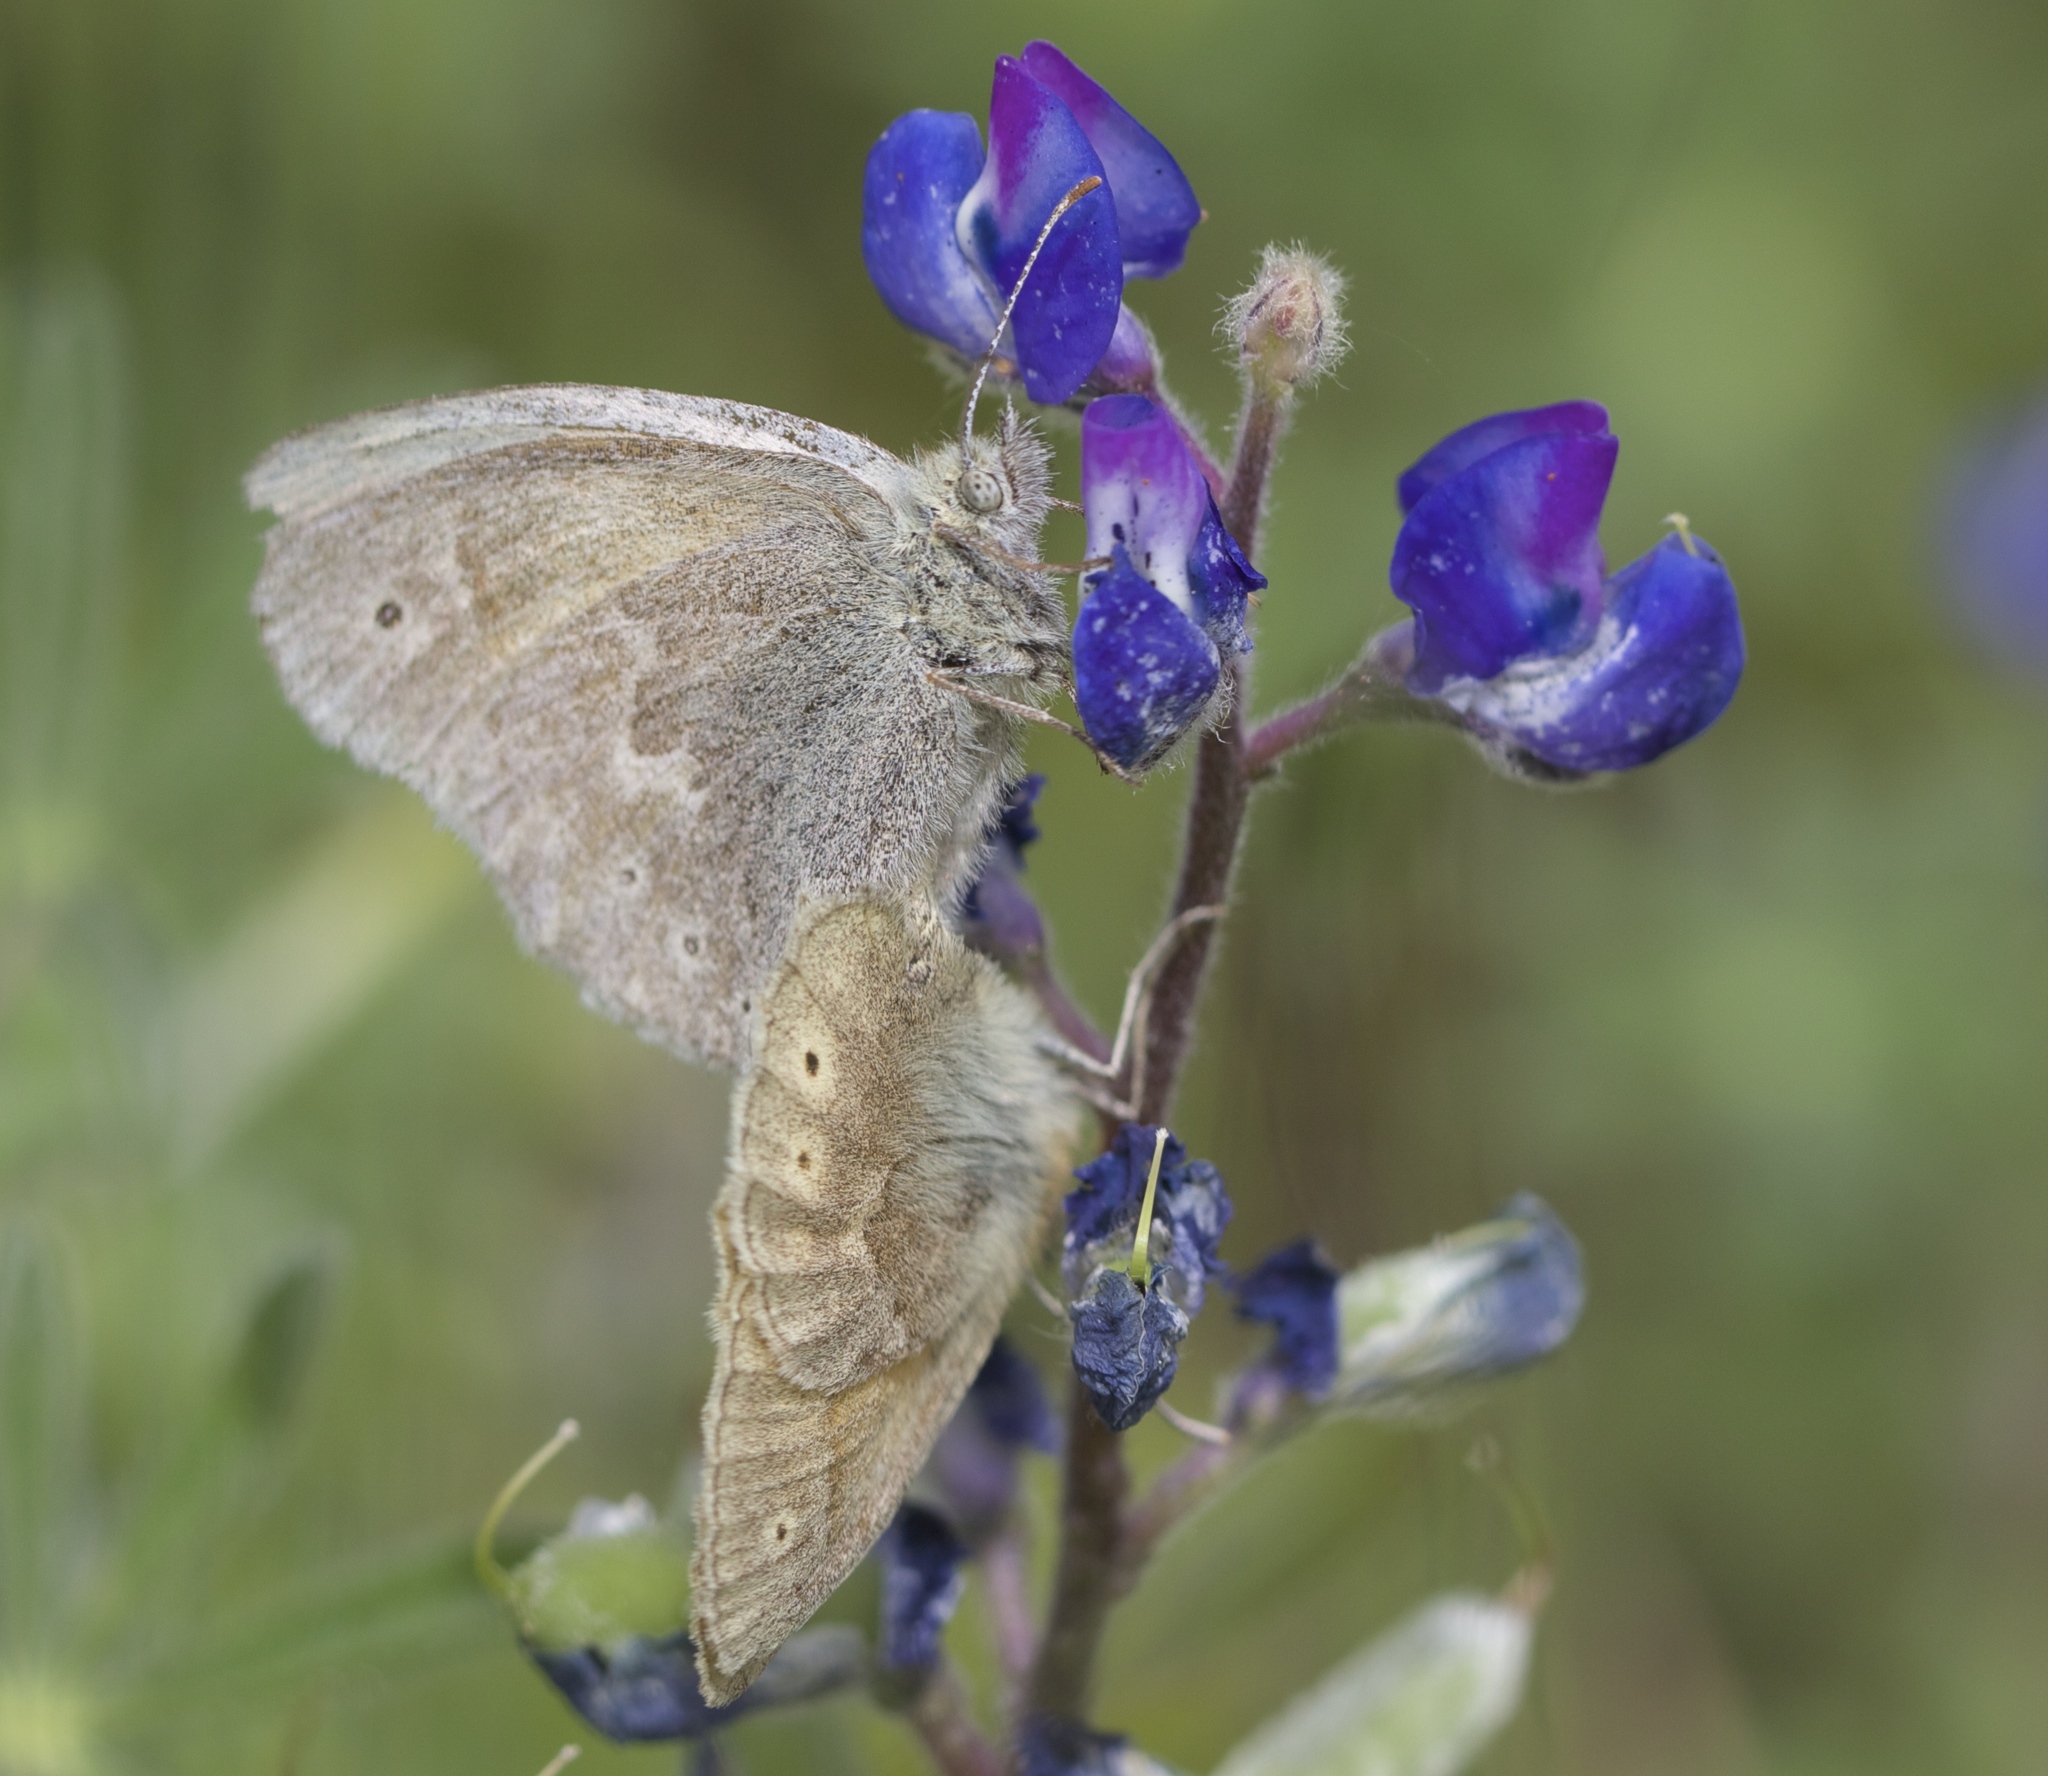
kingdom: Animalia
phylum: Arthropoda
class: Insecta
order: Lepidoptera
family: Nymphalidae
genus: Coenonympha
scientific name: Coenonympha california
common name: Common ringlet
